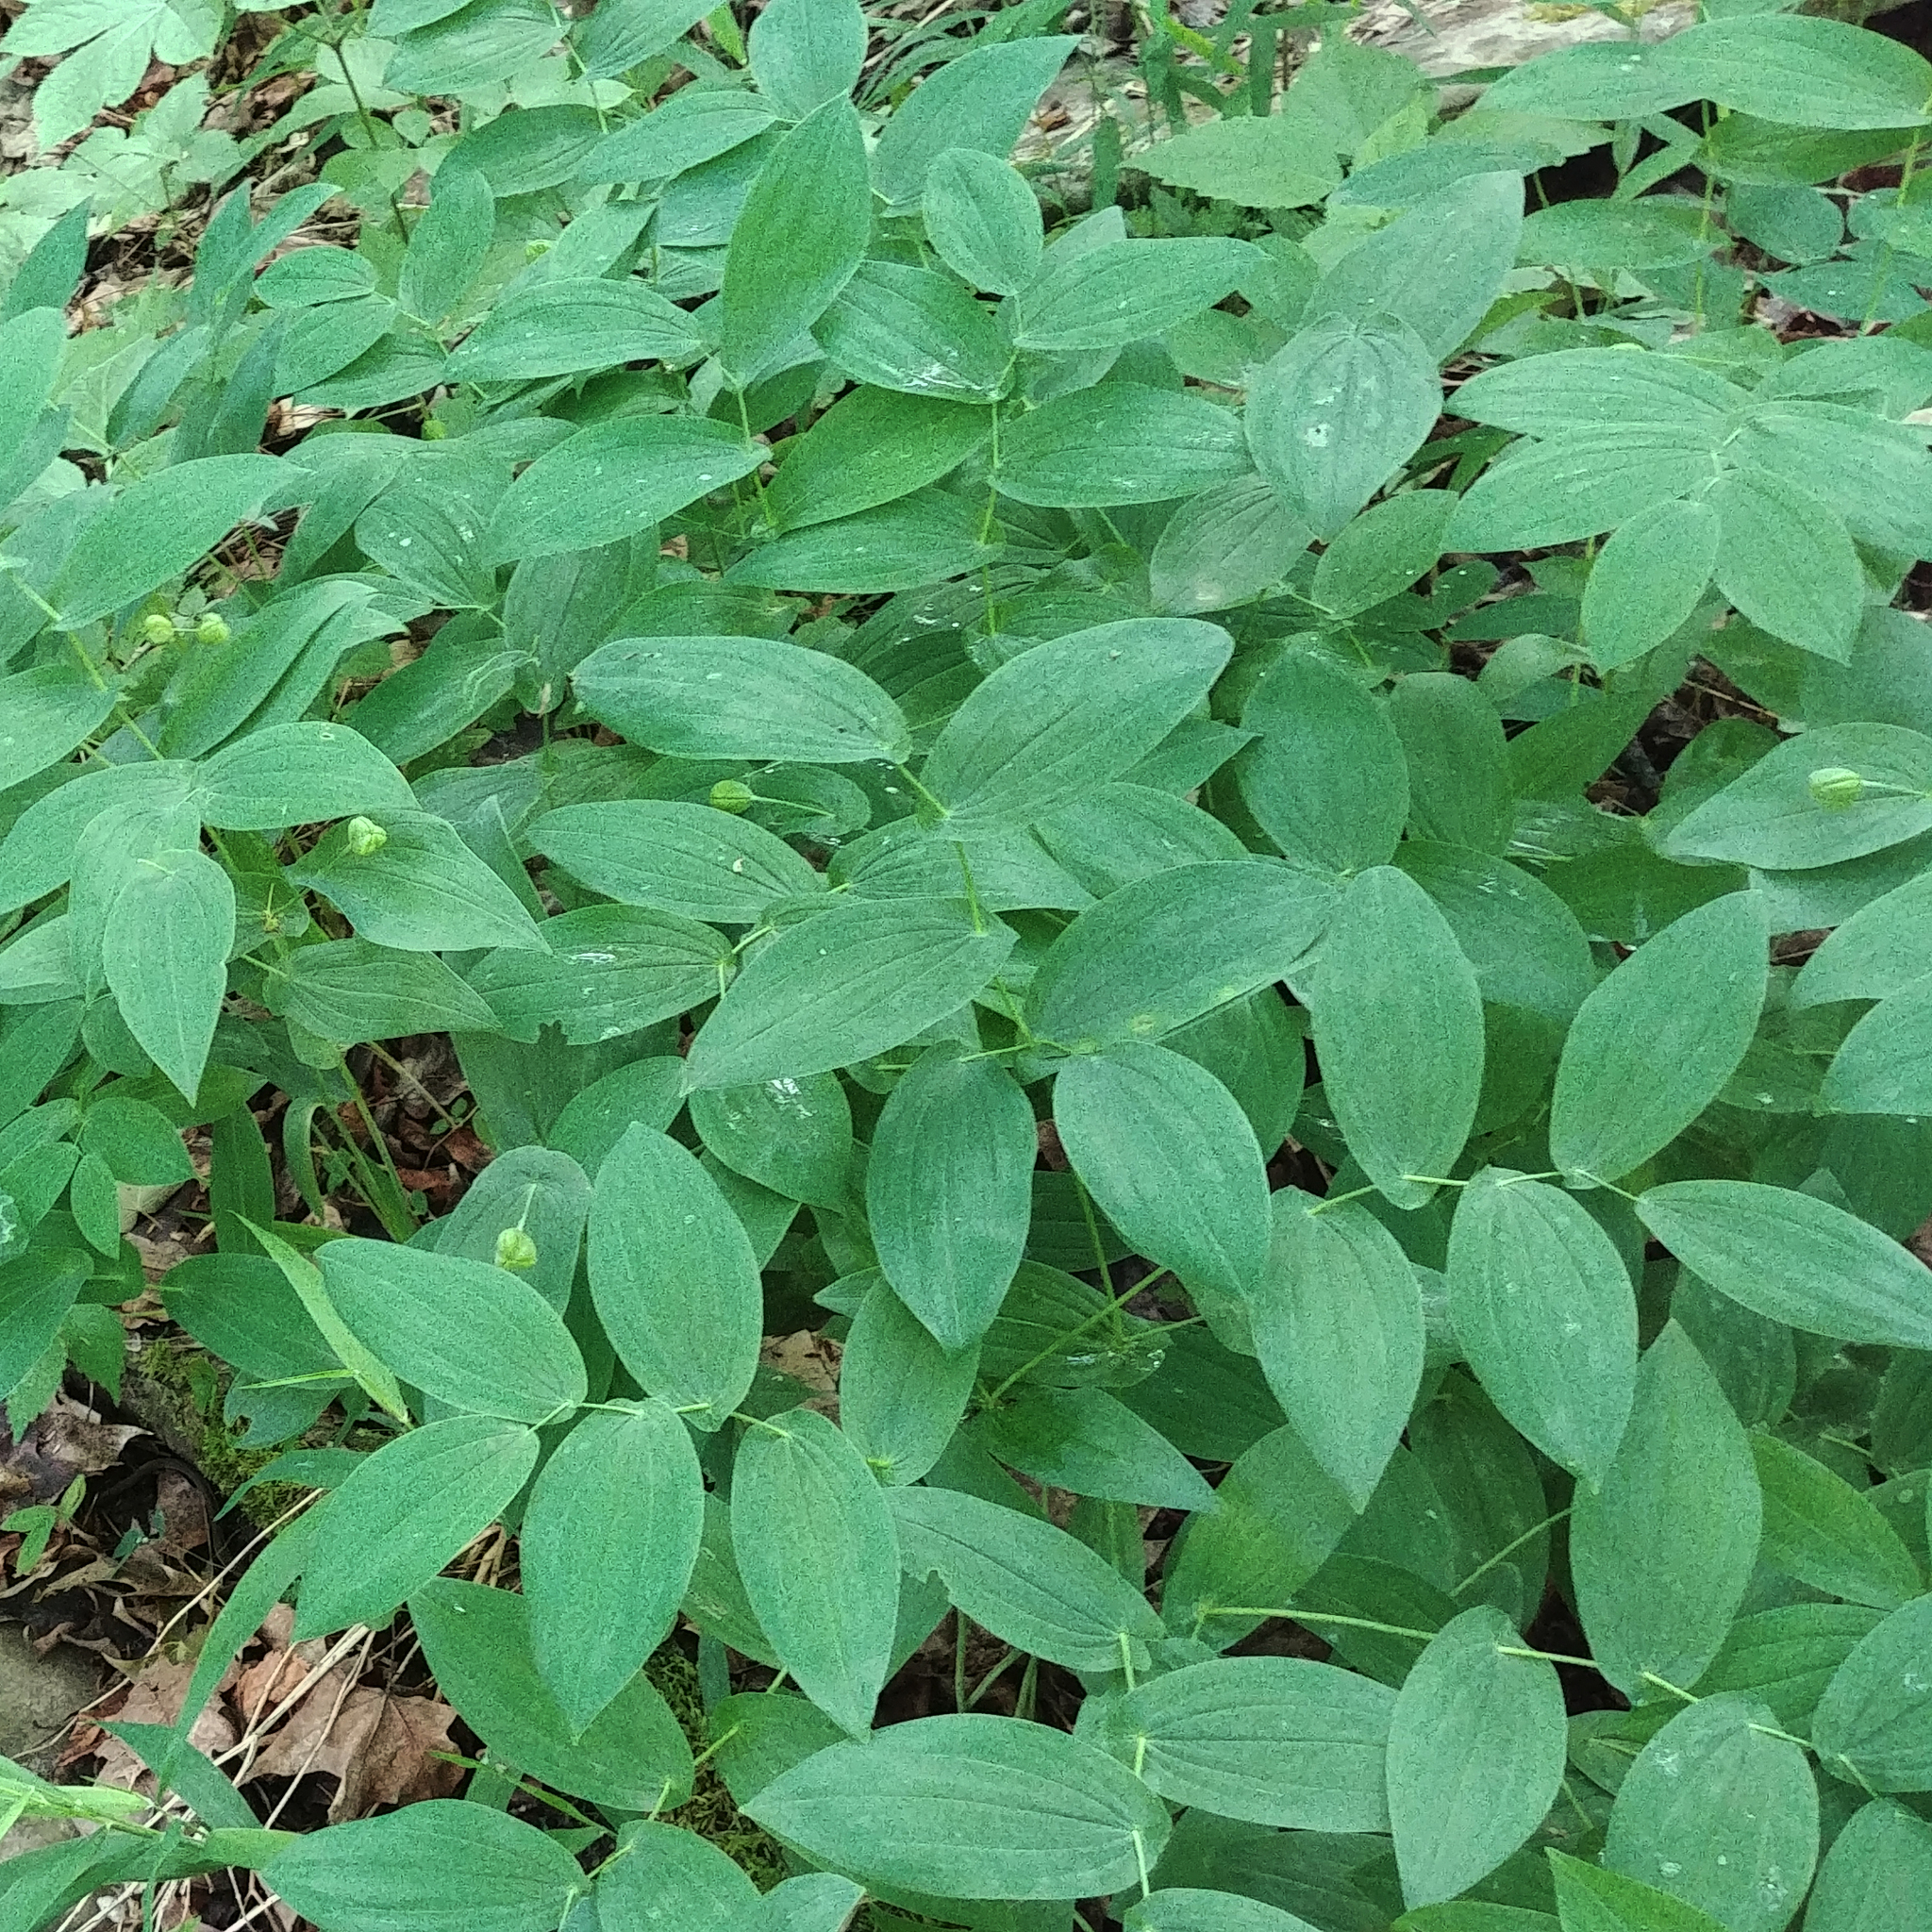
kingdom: Plantae
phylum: Tracheophyta
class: Liliopsida
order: Liliales
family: Colchicaceae
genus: Uvularia
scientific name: Uvularia grandiflora
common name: Bellwort
